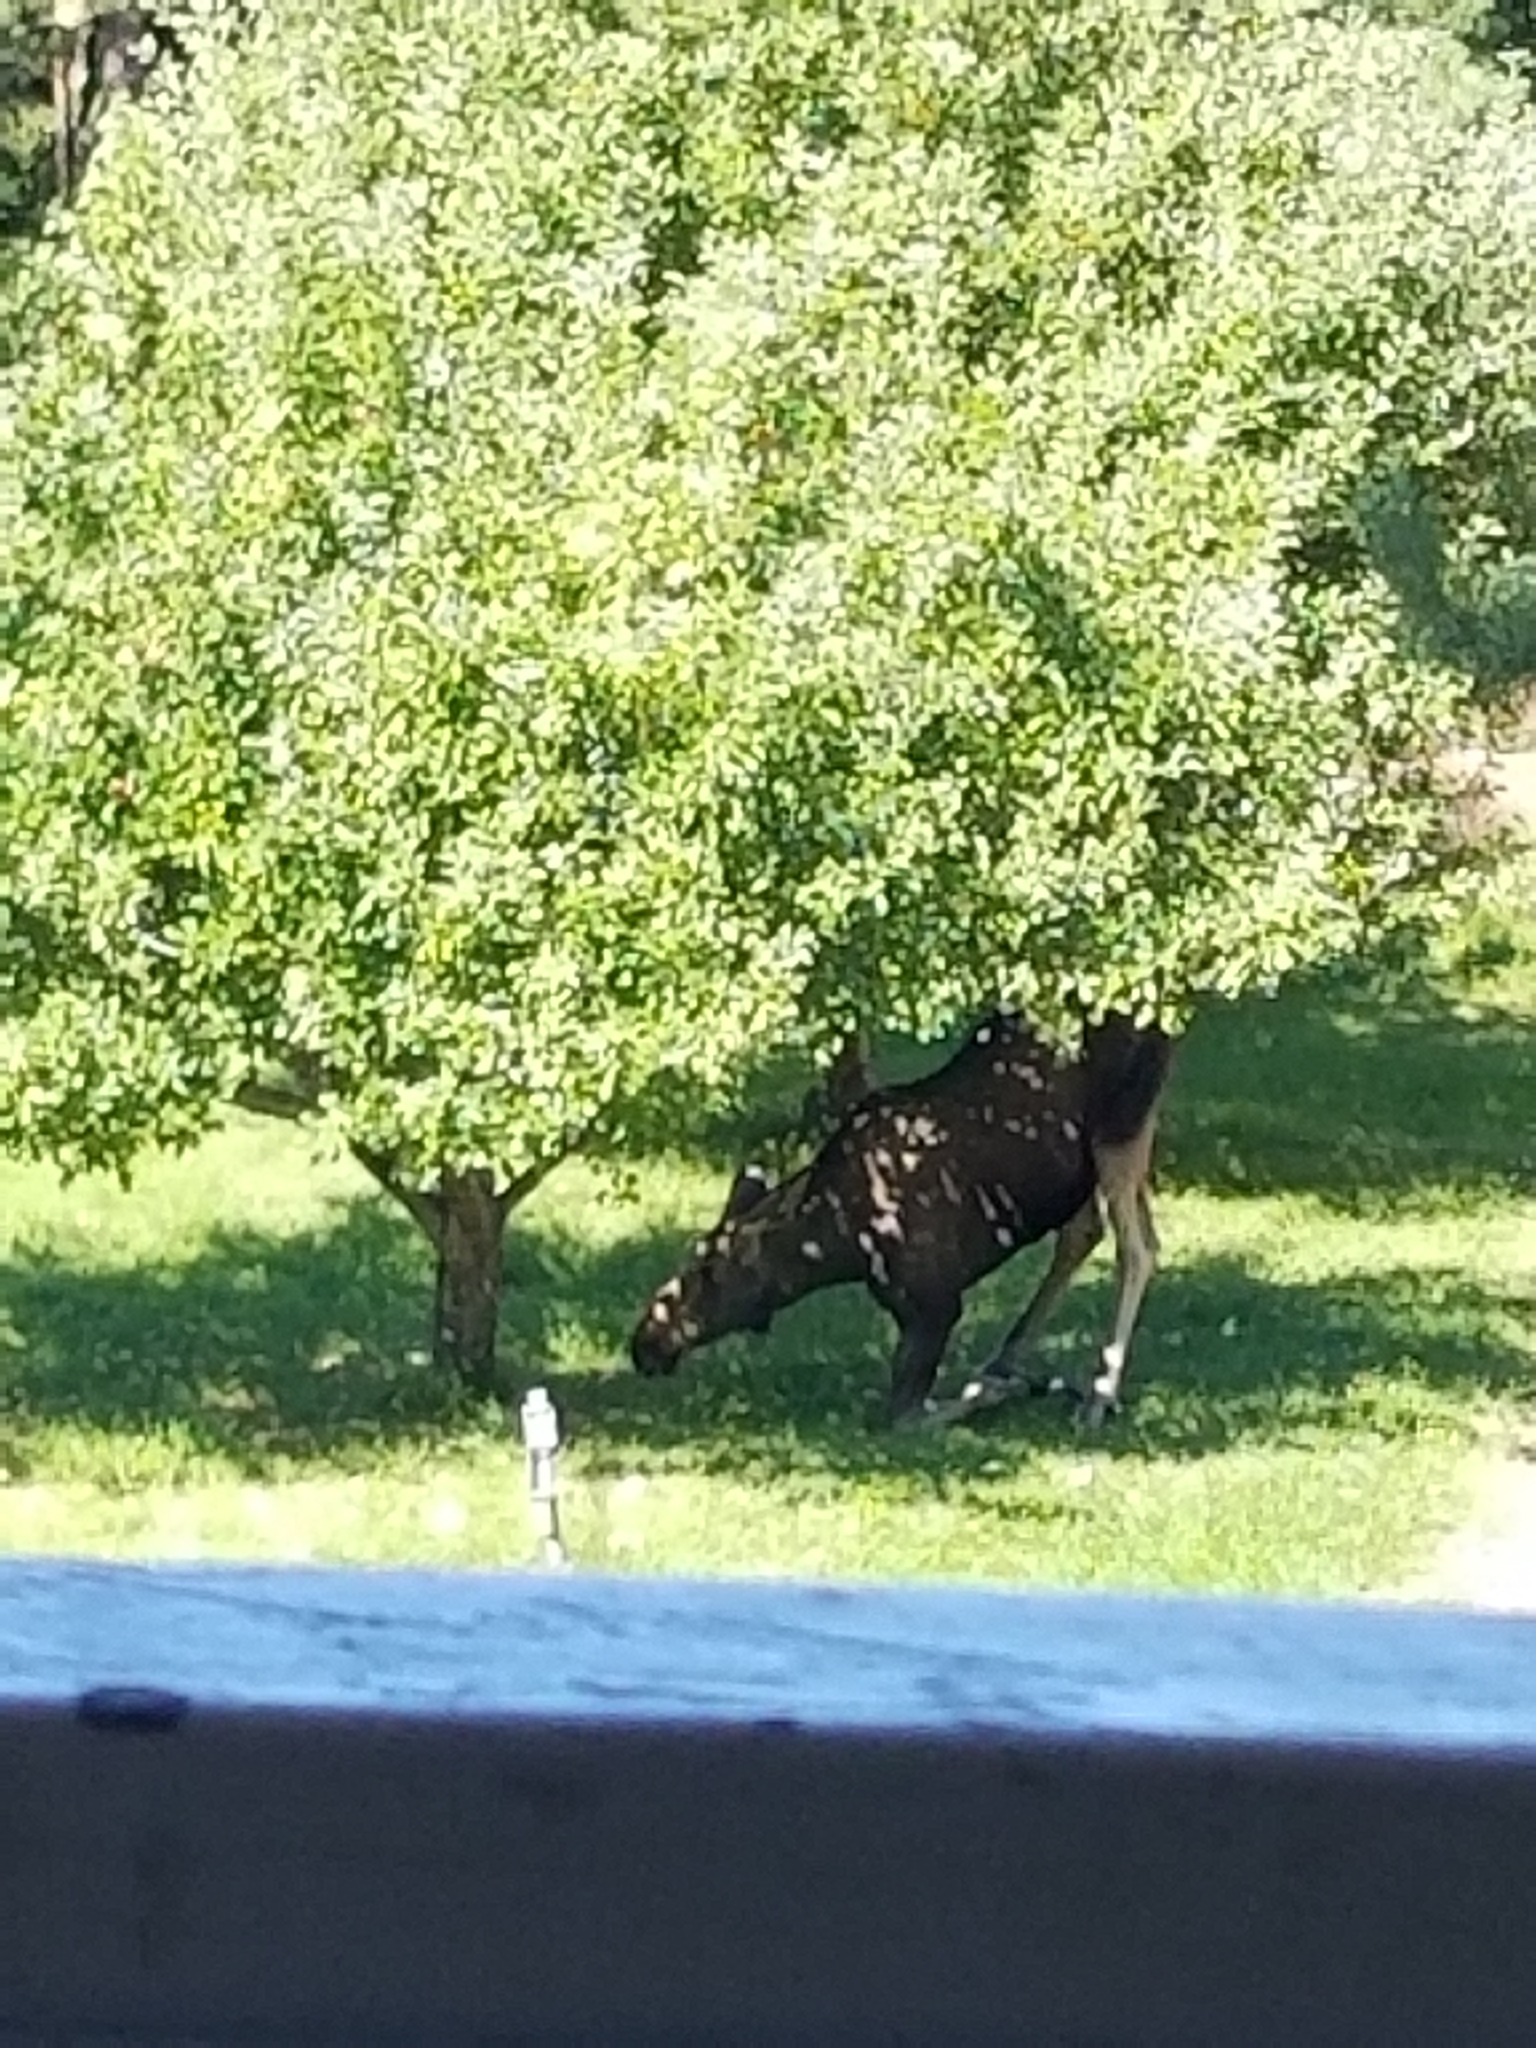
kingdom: Animalia
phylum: Chordata
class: Mammalia
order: Artiodactyla
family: Cervidae
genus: Alces
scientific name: Alces alces
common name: Moose
